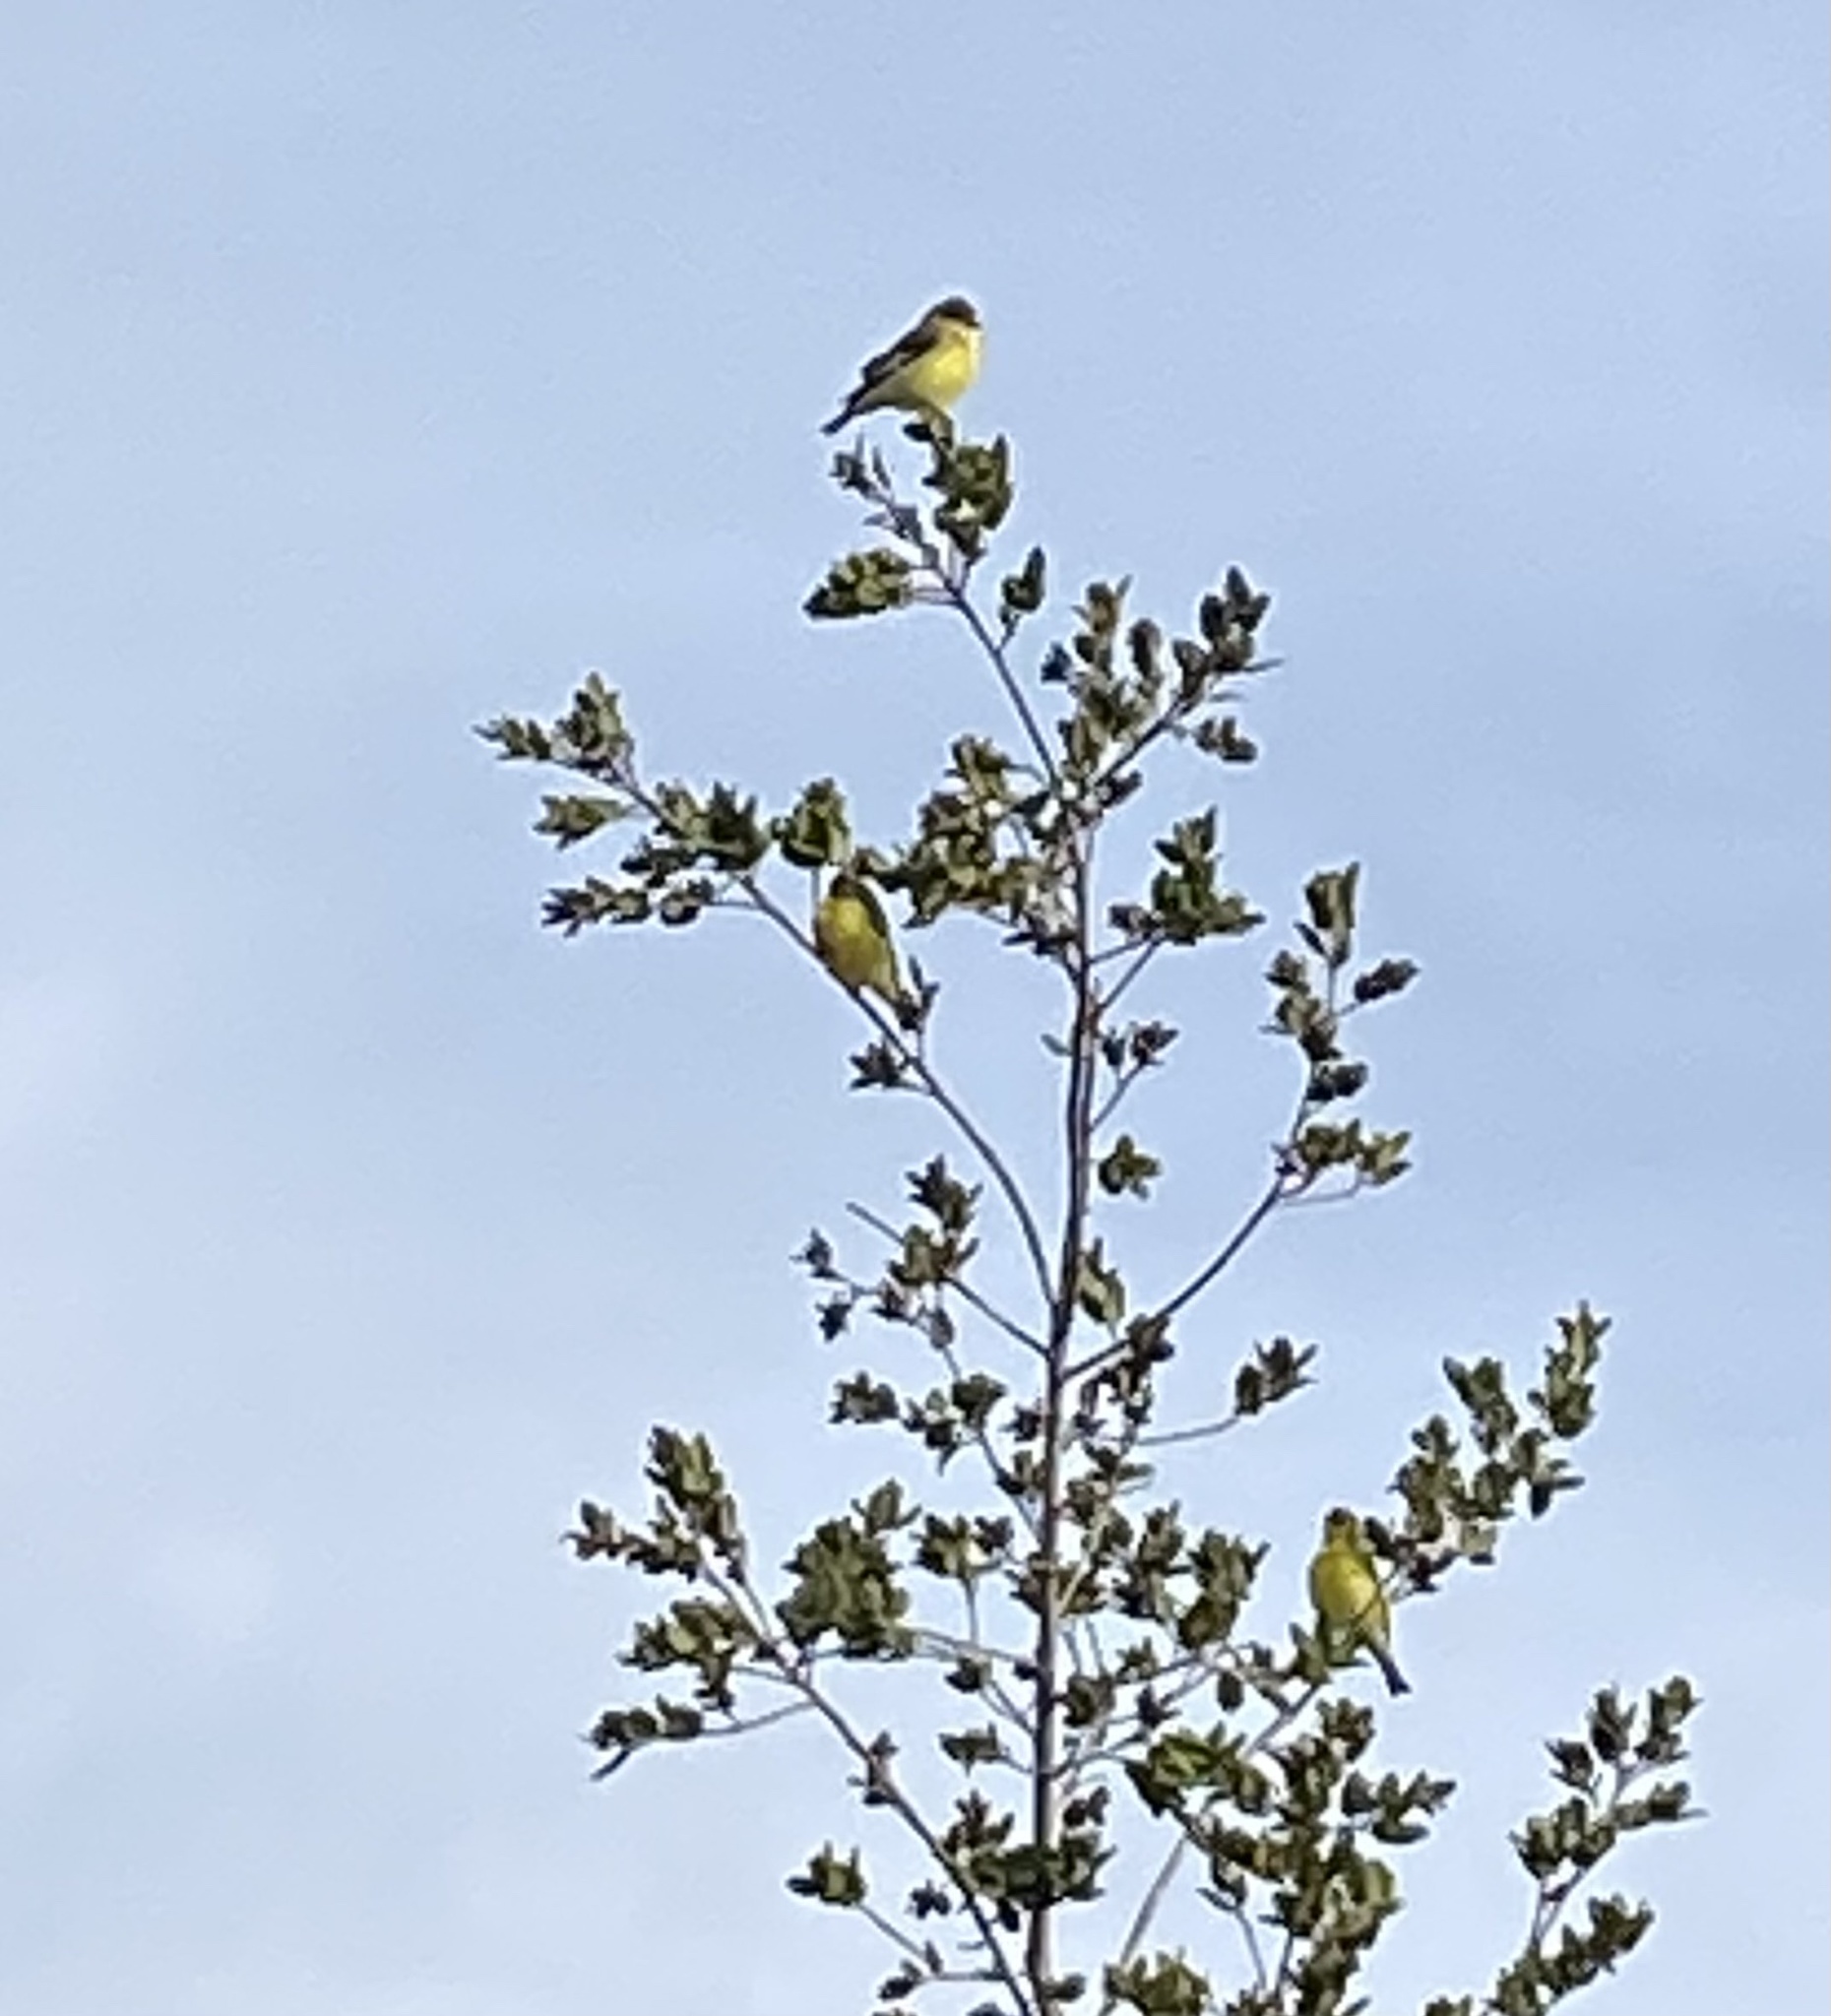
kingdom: Animalia
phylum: Chordata
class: Aves
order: Passeriformes
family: Fringillidae
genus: Spinus
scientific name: Spinus psaltria
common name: Lesser goldfinch
